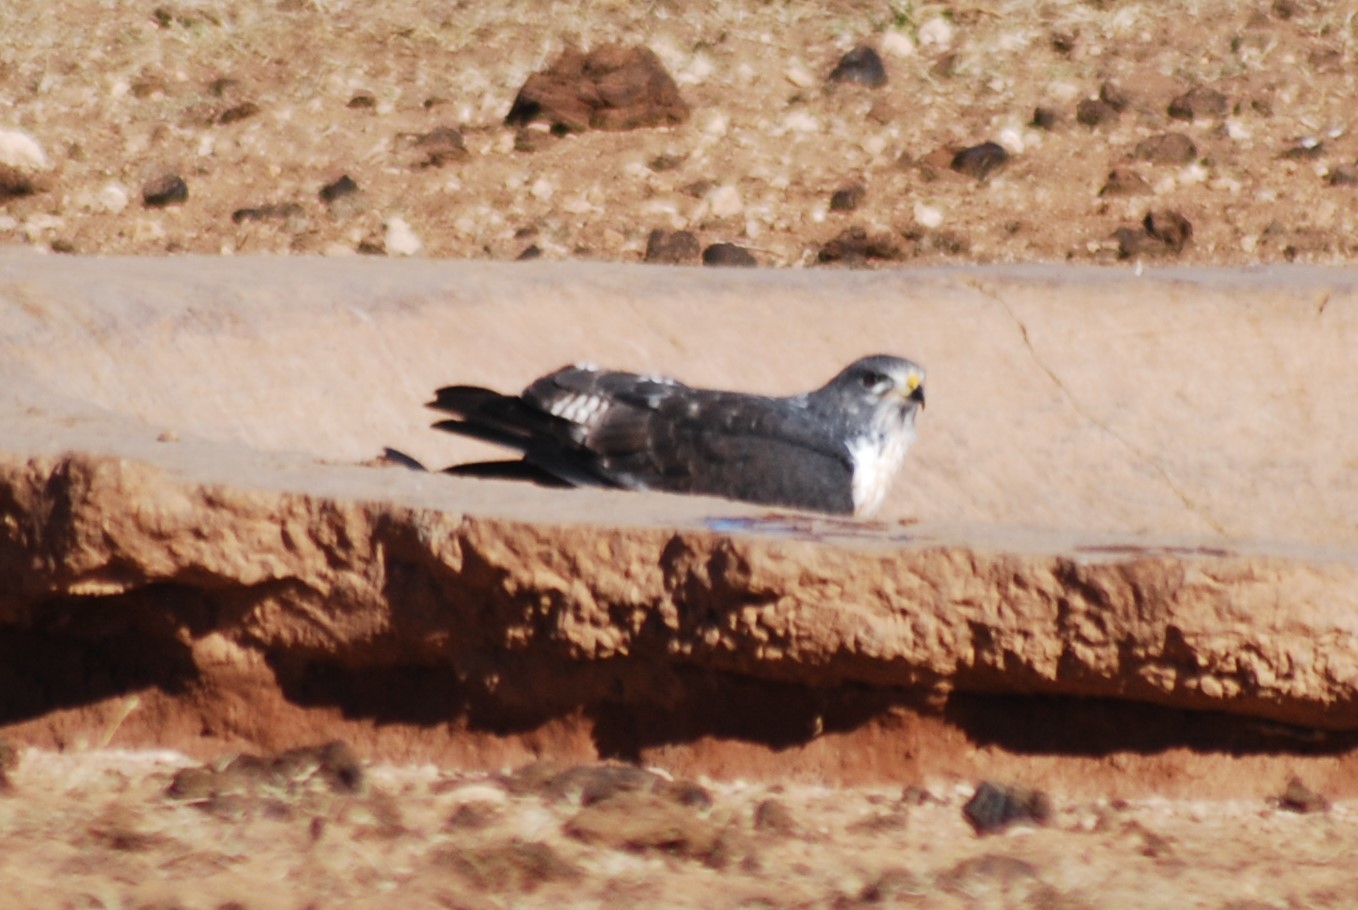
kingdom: Animalia
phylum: Chordata
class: Aves
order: Accipitriformes
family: Accipitridae
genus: Buteo
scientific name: Buteo rufofuscus
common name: Jackal buzzard
